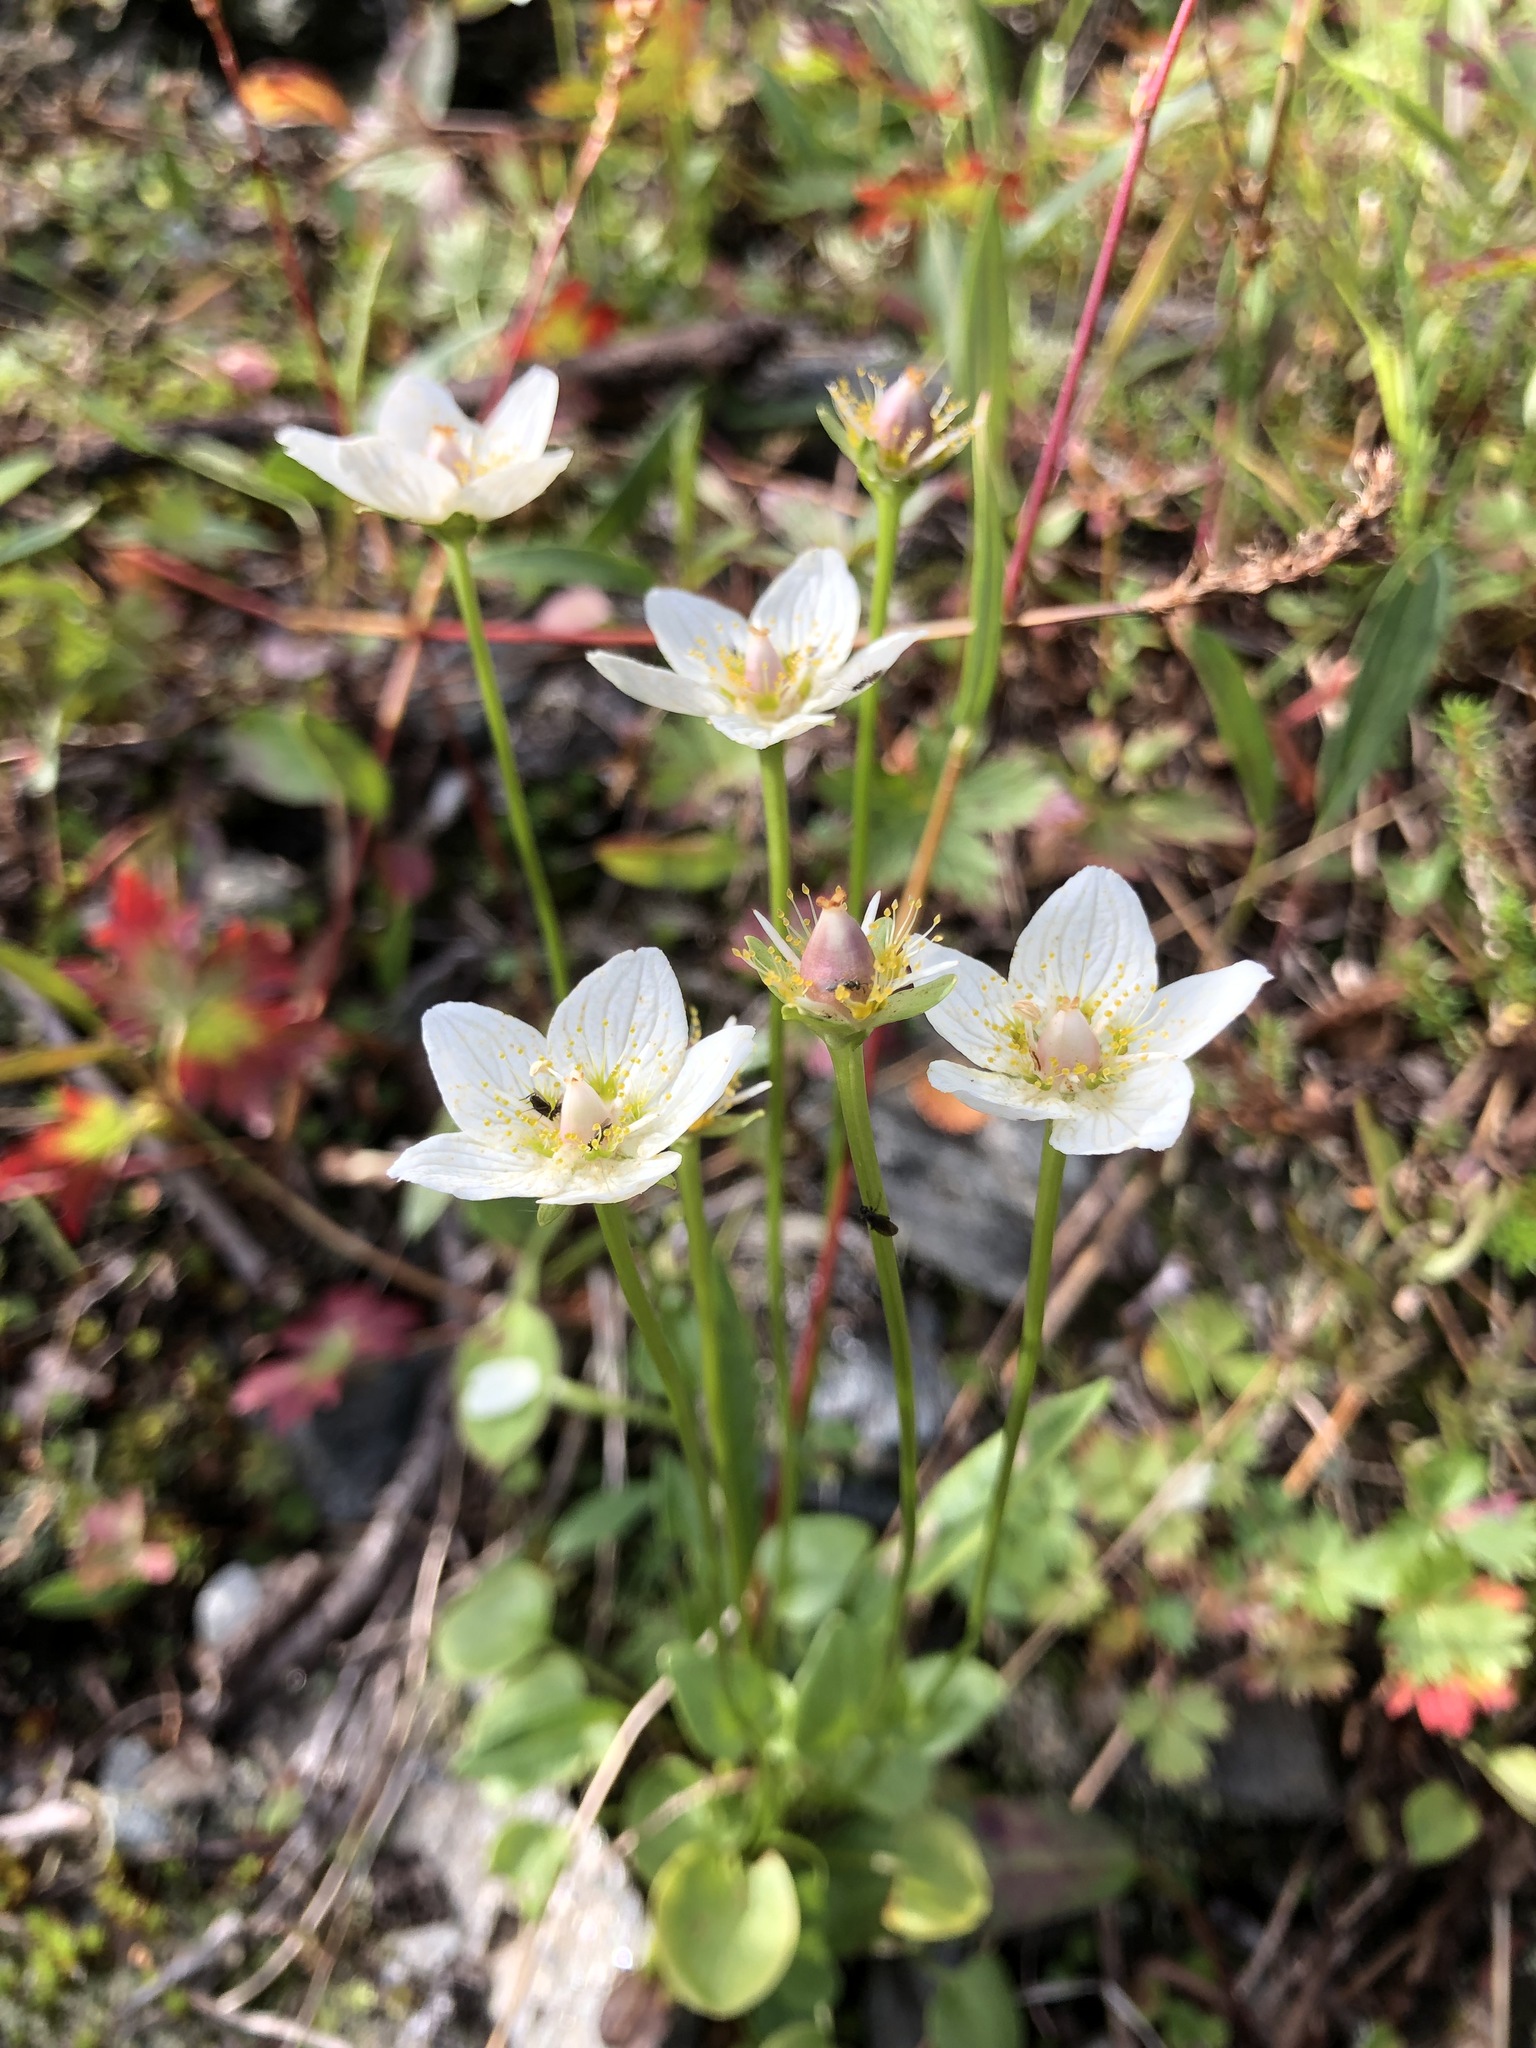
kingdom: Plantae
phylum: Tracheophyta
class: Magnoliopsida
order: Celastrales
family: Parnassiaceae
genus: Parnassia
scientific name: Parnassia palustris
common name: Grass-of-parnassus
